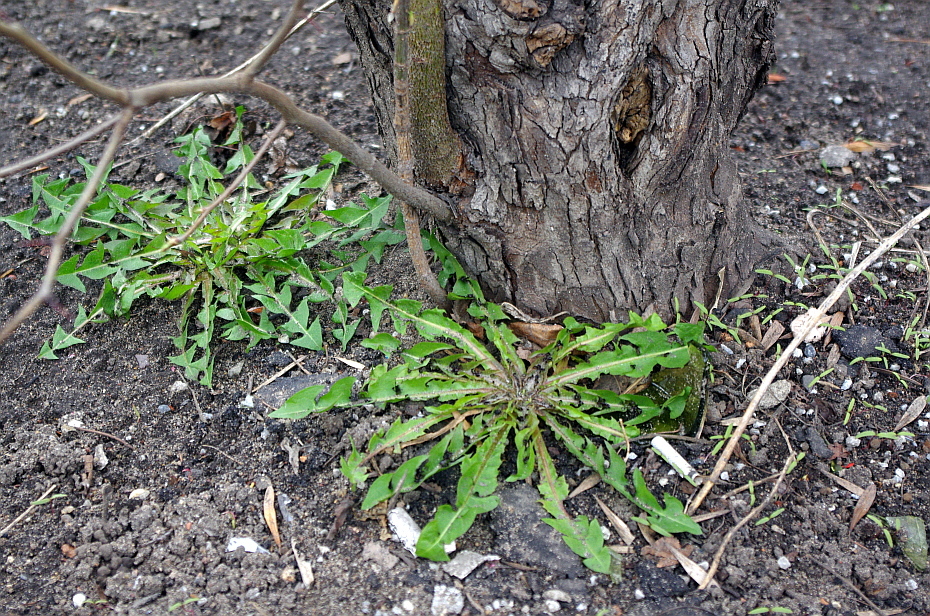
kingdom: Plantae
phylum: Tracheophyta
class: Magnoliopsida
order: Asterales
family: Asteraceae
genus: Taraxacum
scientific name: Taraxacum officinale
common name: Common dandelion
